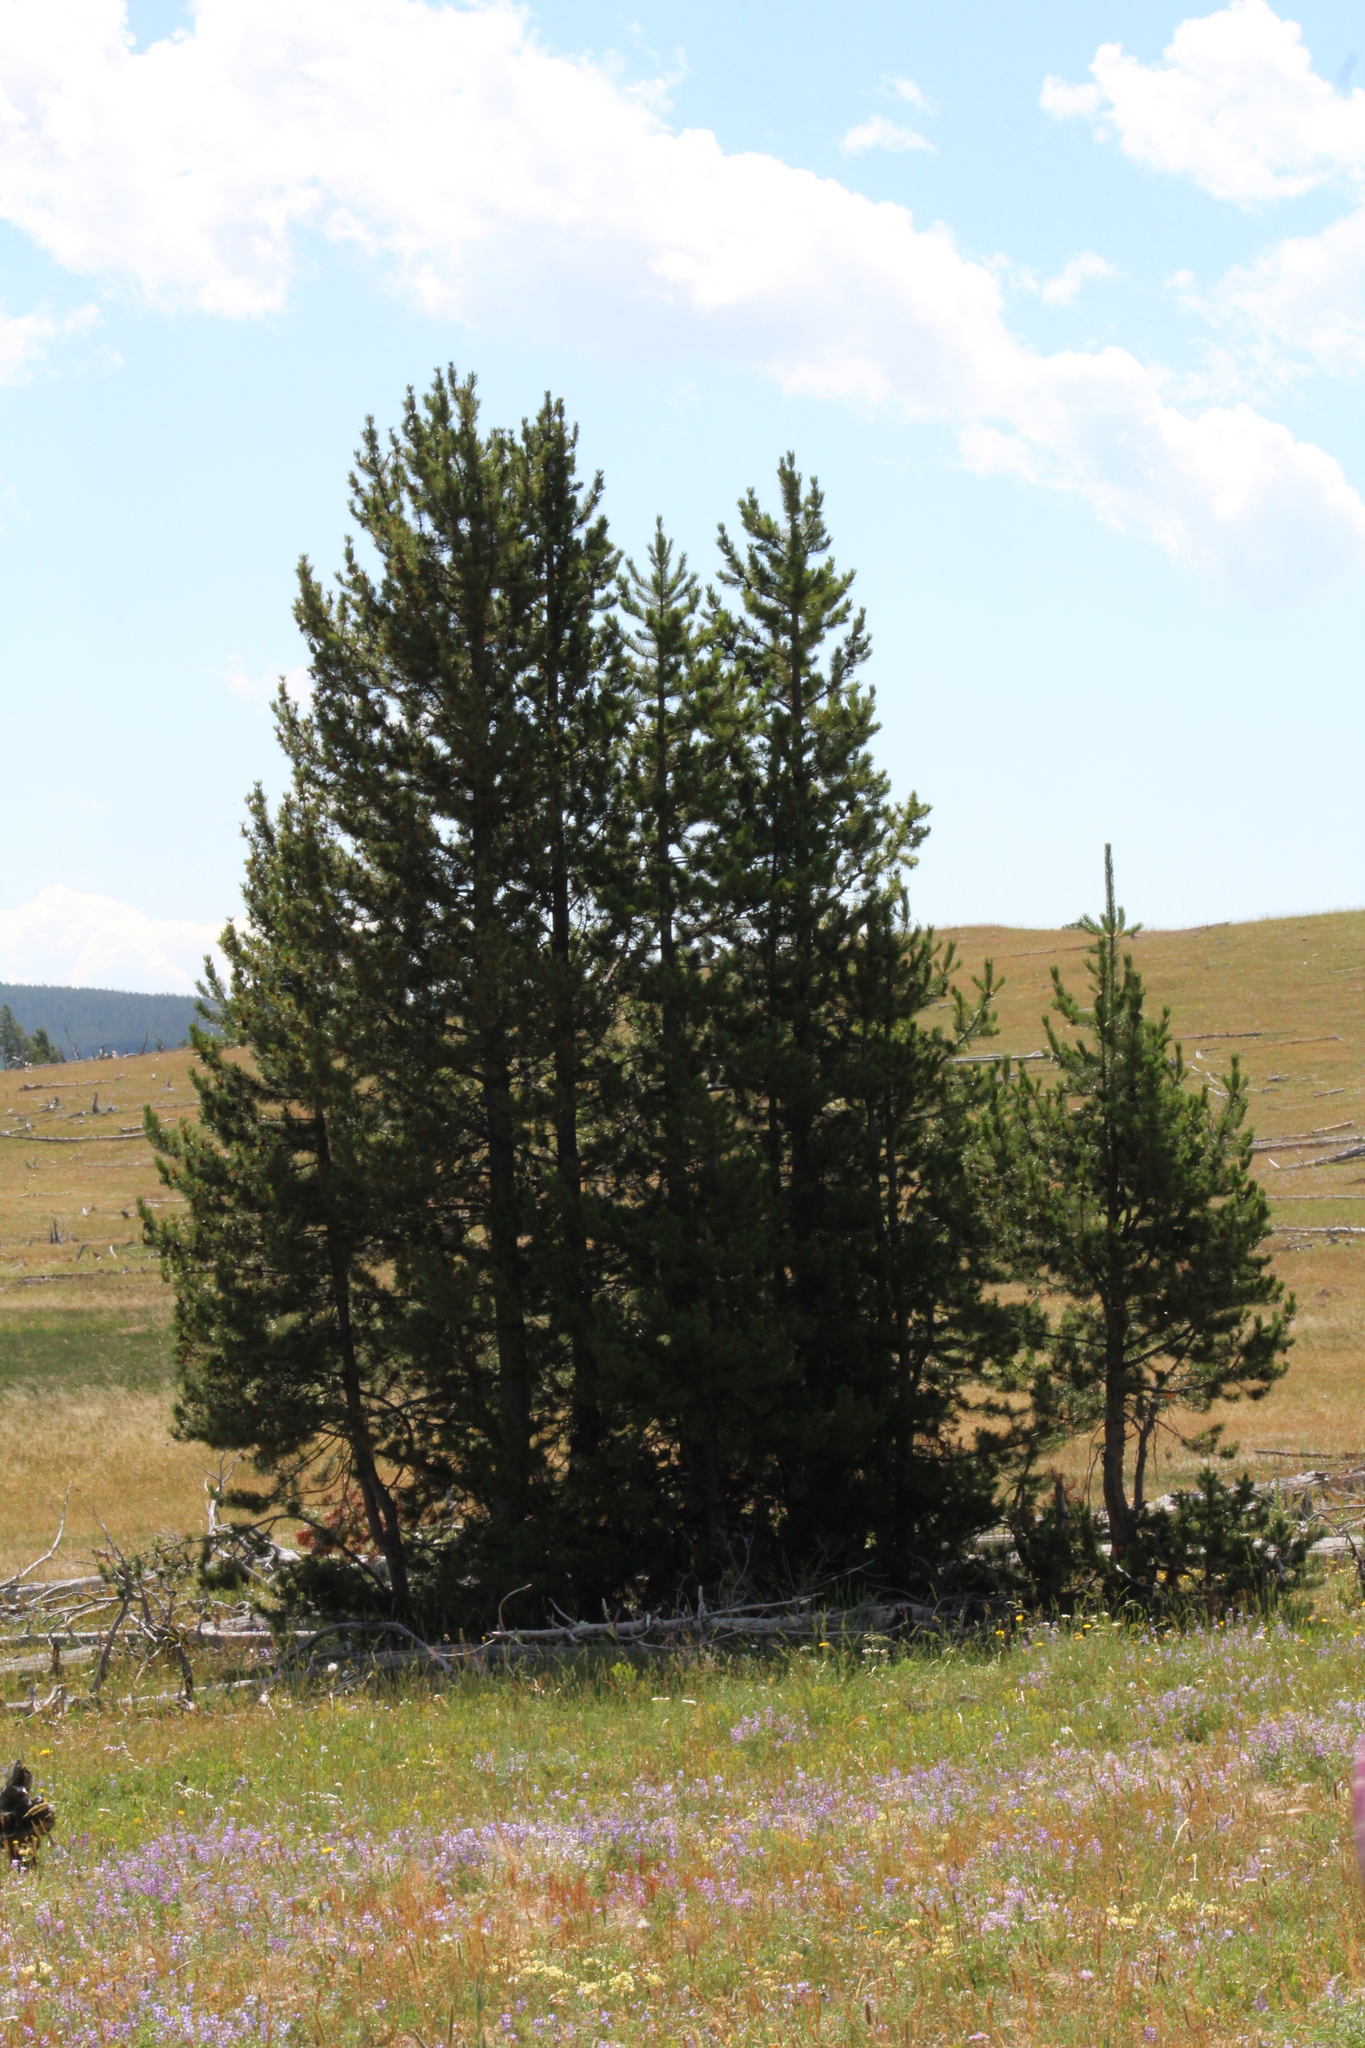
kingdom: Plantae
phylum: Tracheophyta
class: Pinopsida
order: Pinales
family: Pinaceae
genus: Pinus
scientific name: Pinus contorta
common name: Lodgepole pine
